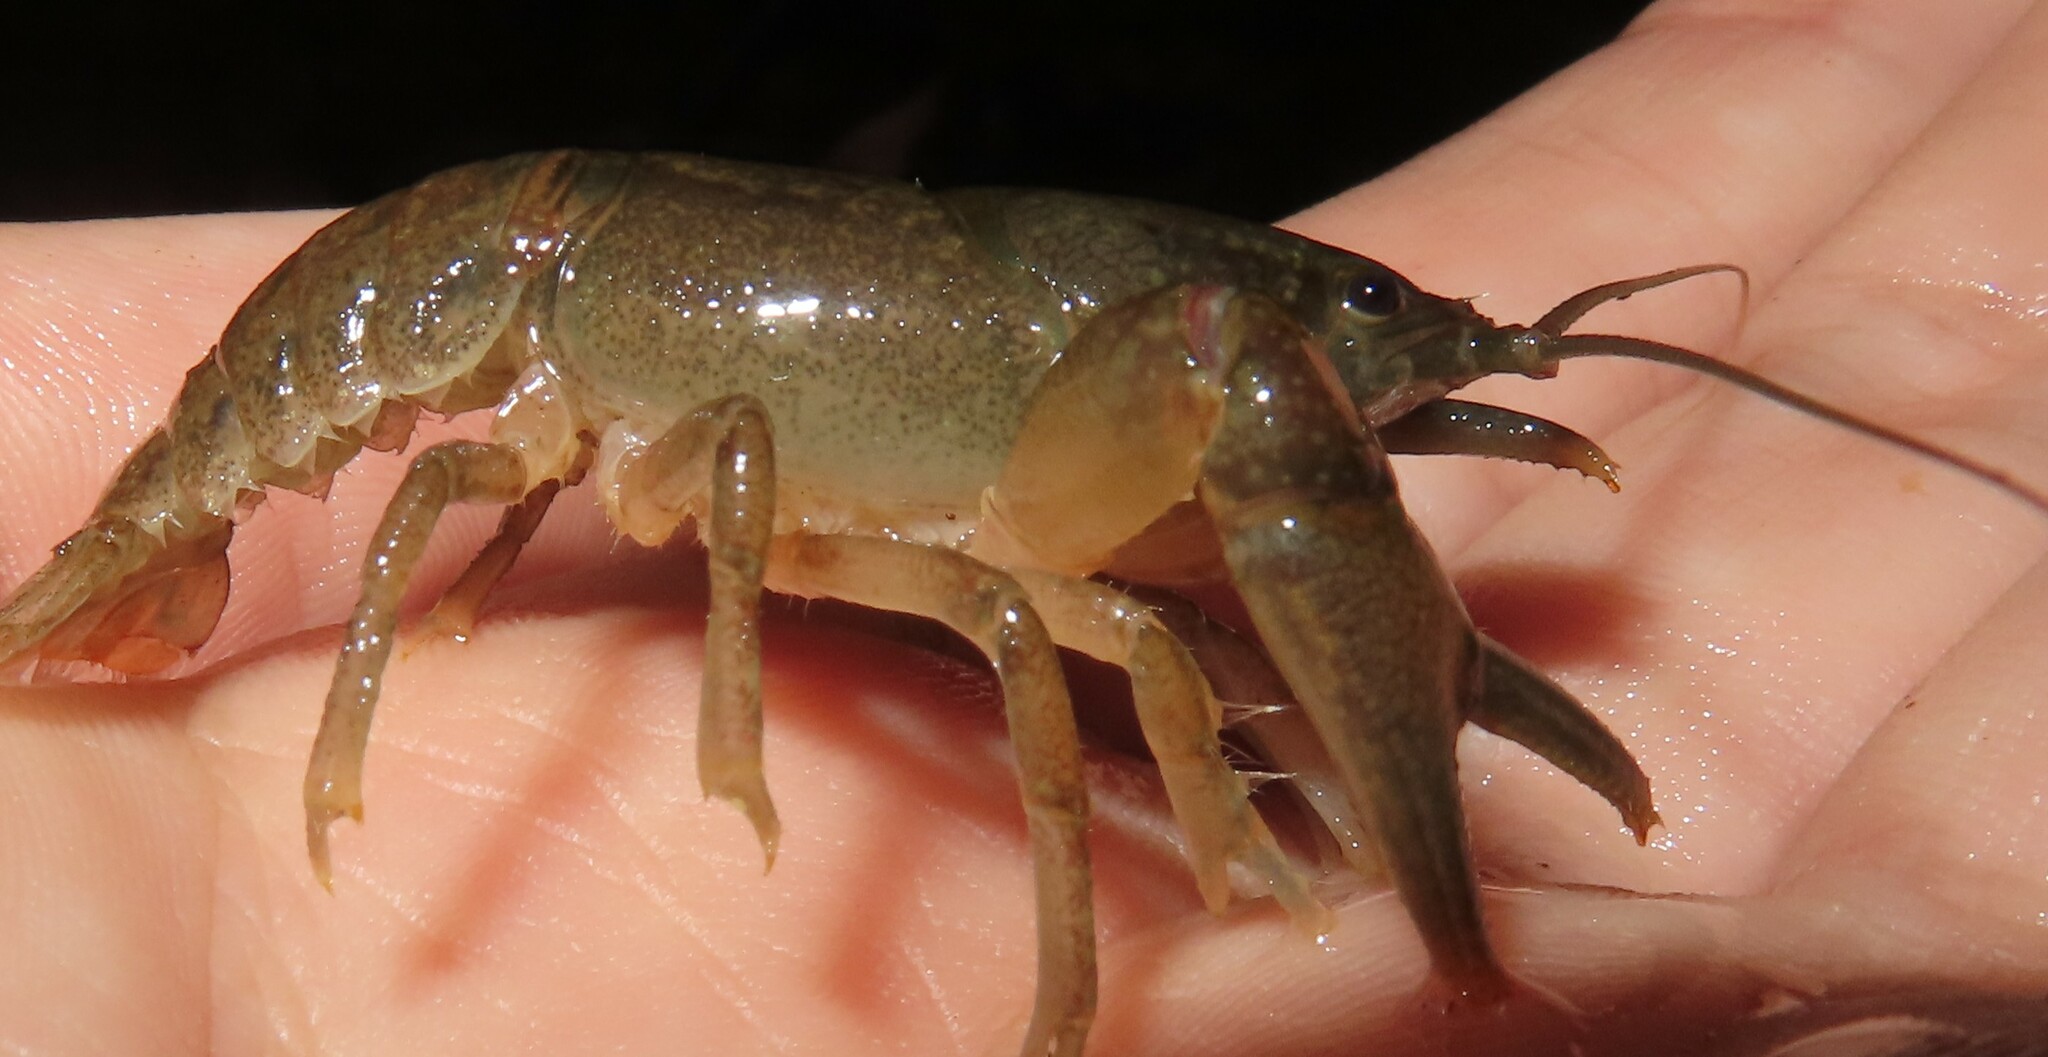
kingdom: Animalia
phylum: Arthropoda
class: Malacostraca
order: Decapoda
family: Cambaridae
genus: Cambarus
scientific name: Cambarus bartonii
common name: Appalachian brook crayfish
